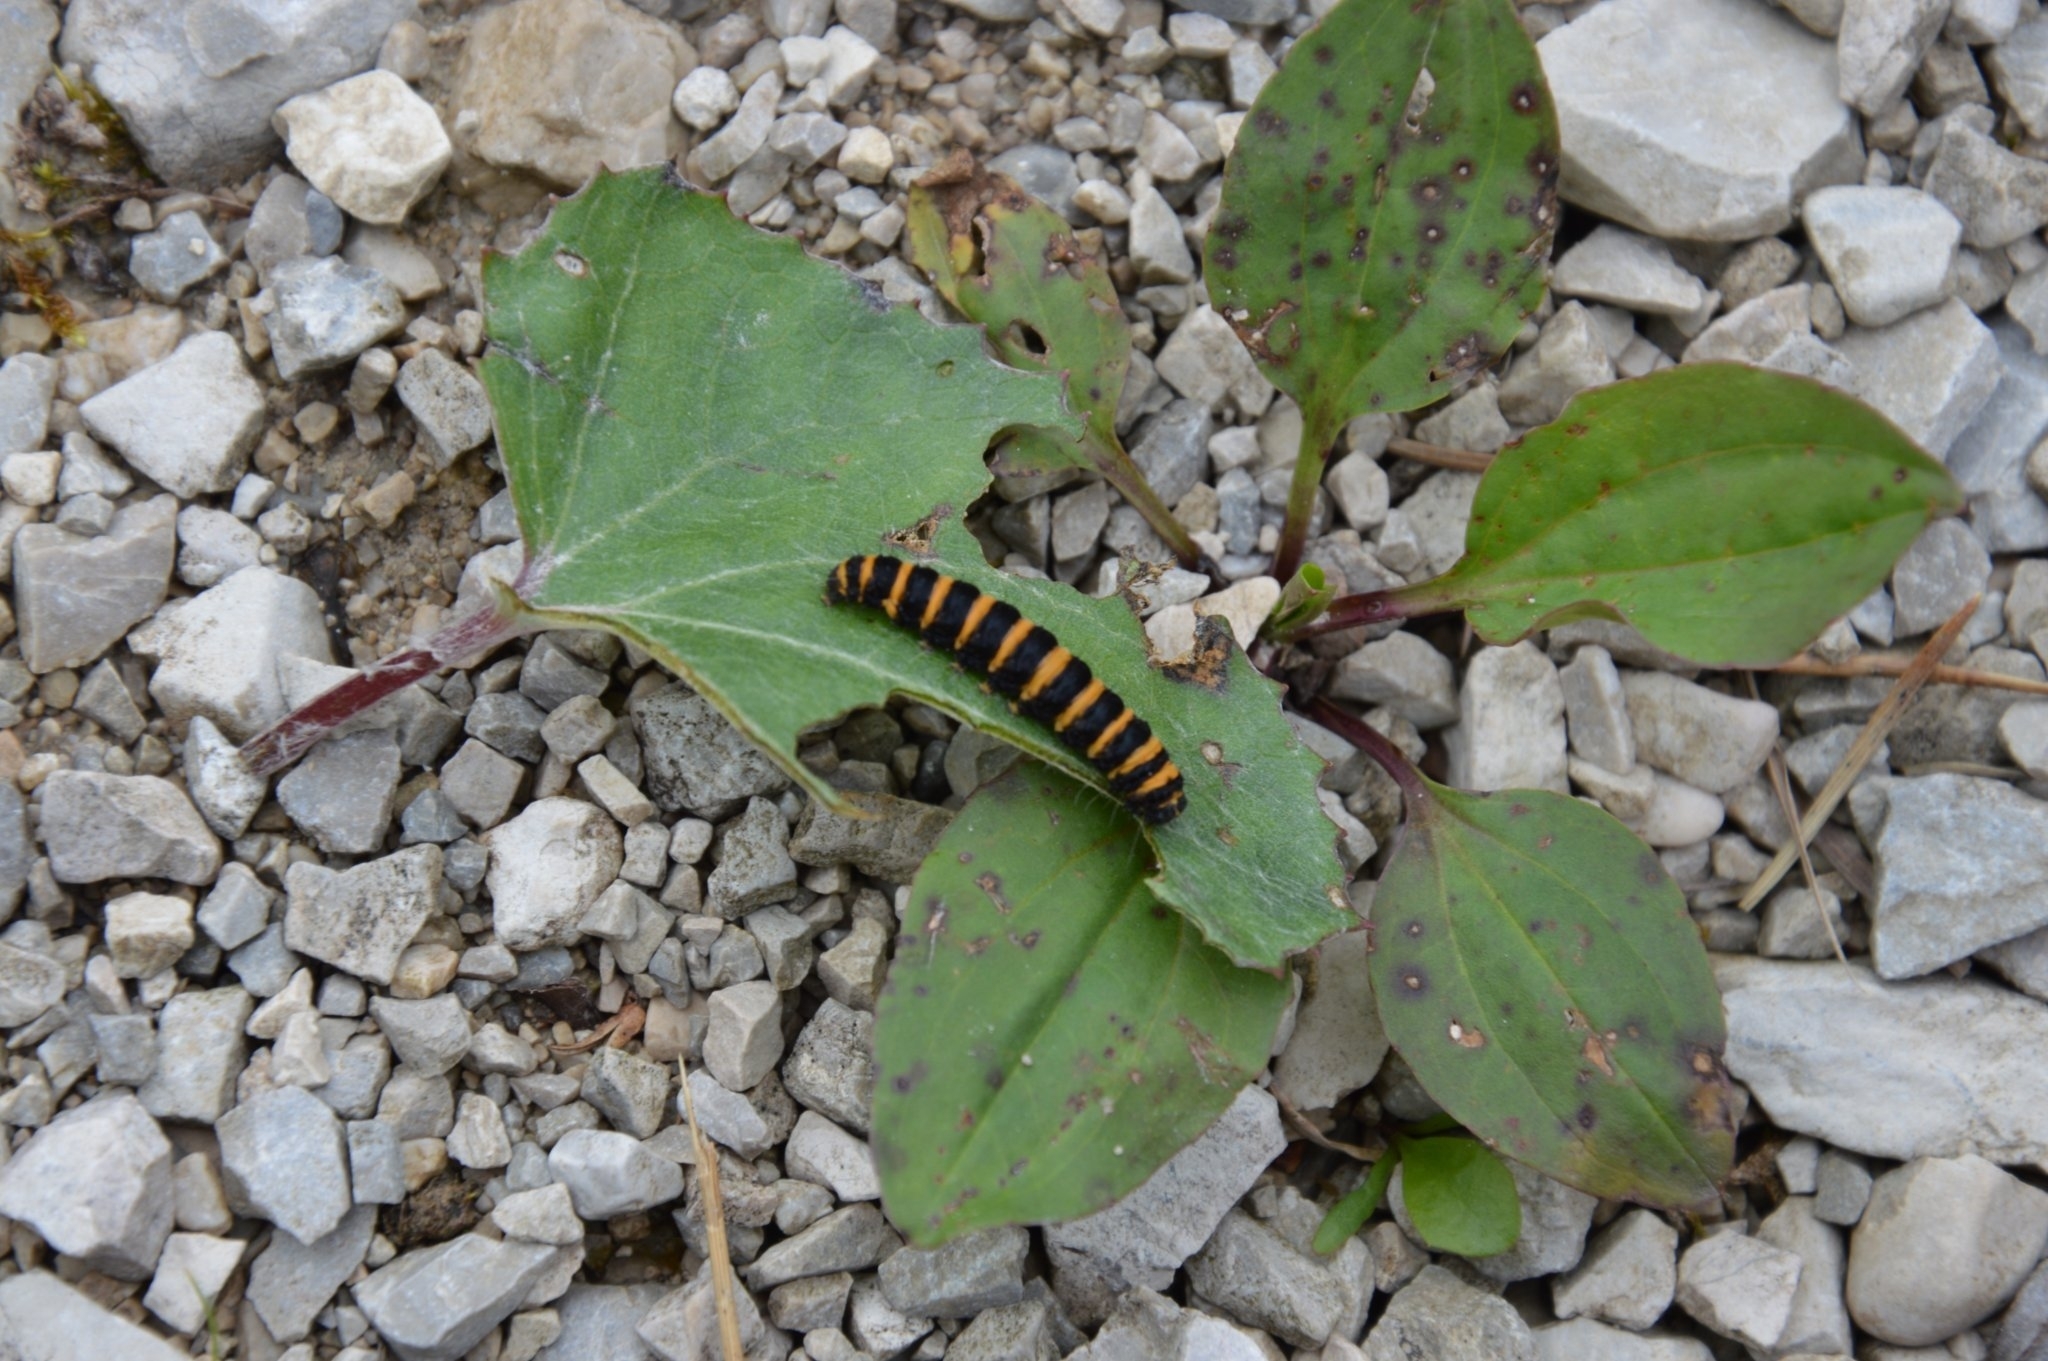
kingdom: Animalia
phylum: Arthropoda
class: Insecta
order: Lepidoptera
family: Erebidae
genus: Tyria
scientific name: Tyria jacobaeae
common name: Cinnabar
